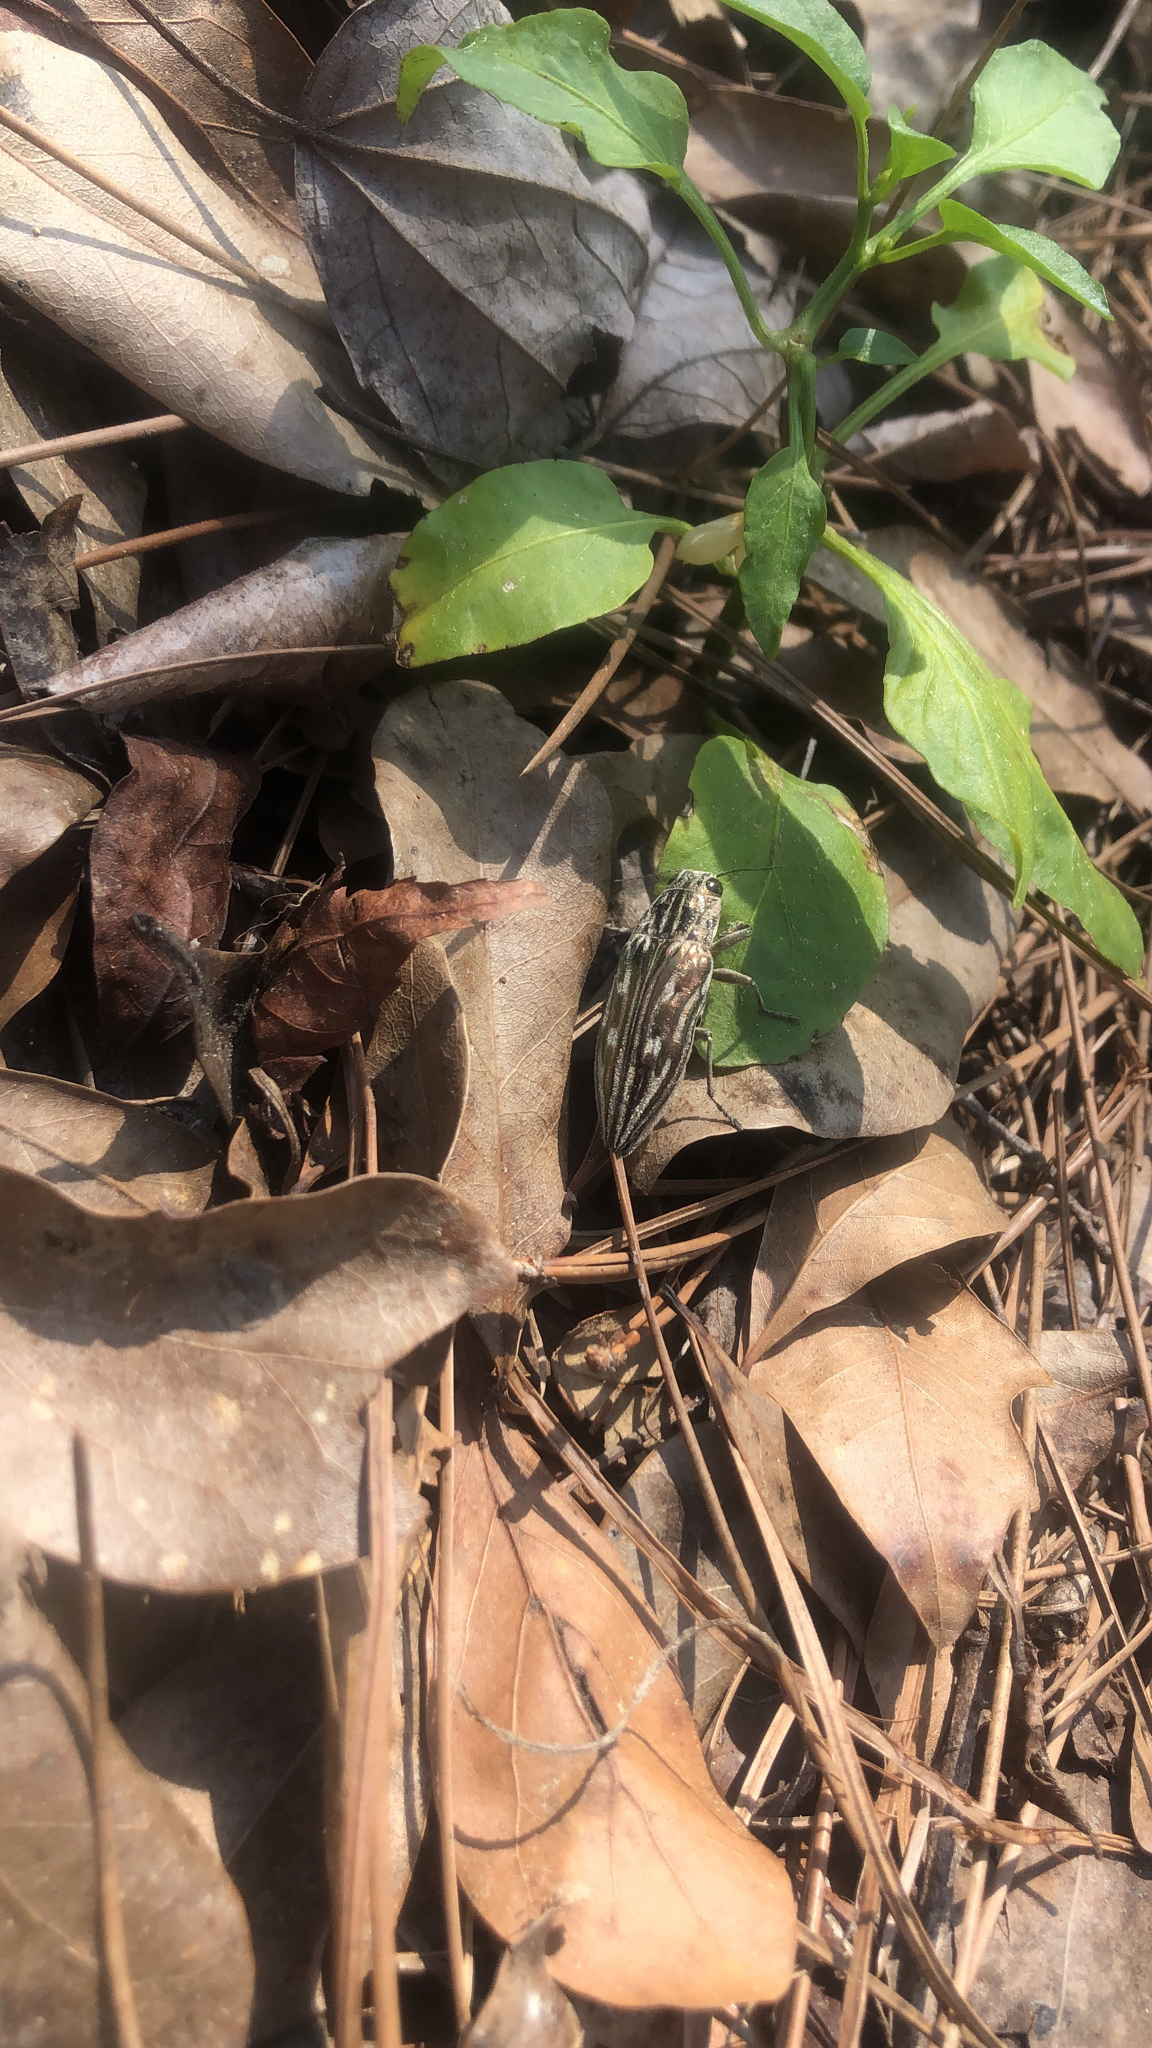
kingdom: Animalia
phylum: Arthropoda
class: Insecta
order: Coleoptera
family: Buprestidae
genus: Chalcophora
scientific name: Chalcophora georgiana
